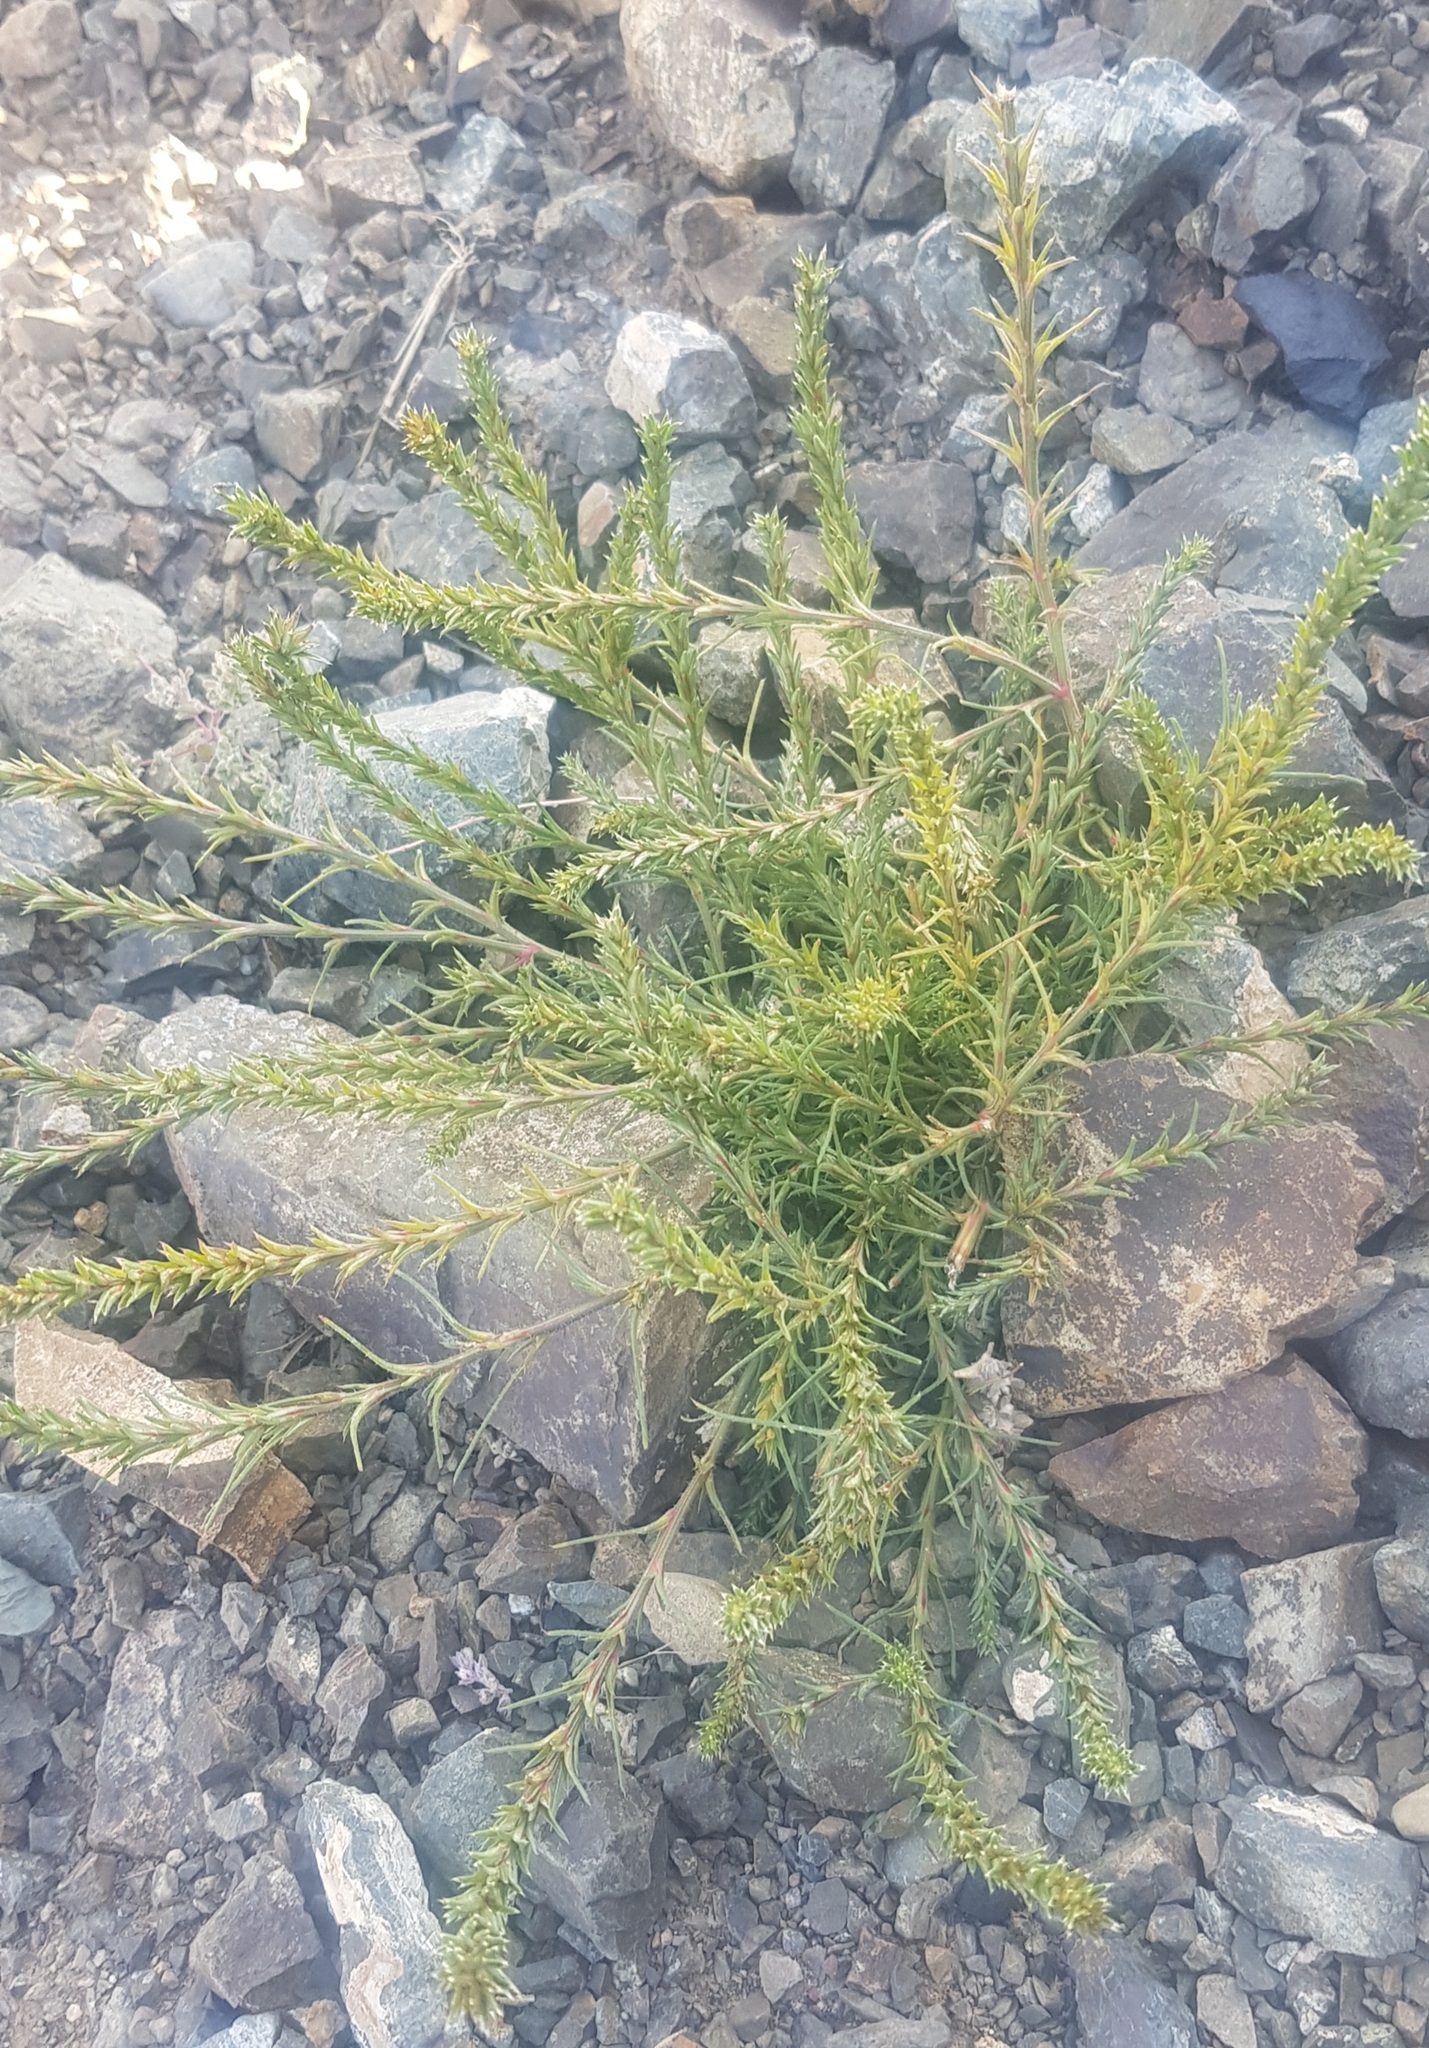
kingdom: Plantae
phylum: Tracheophyta
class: Magnoliopsida
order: Caryophyllales
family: Amaranthaceae
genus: Salsola
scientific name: Salsola collina
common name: Tumbleweed
